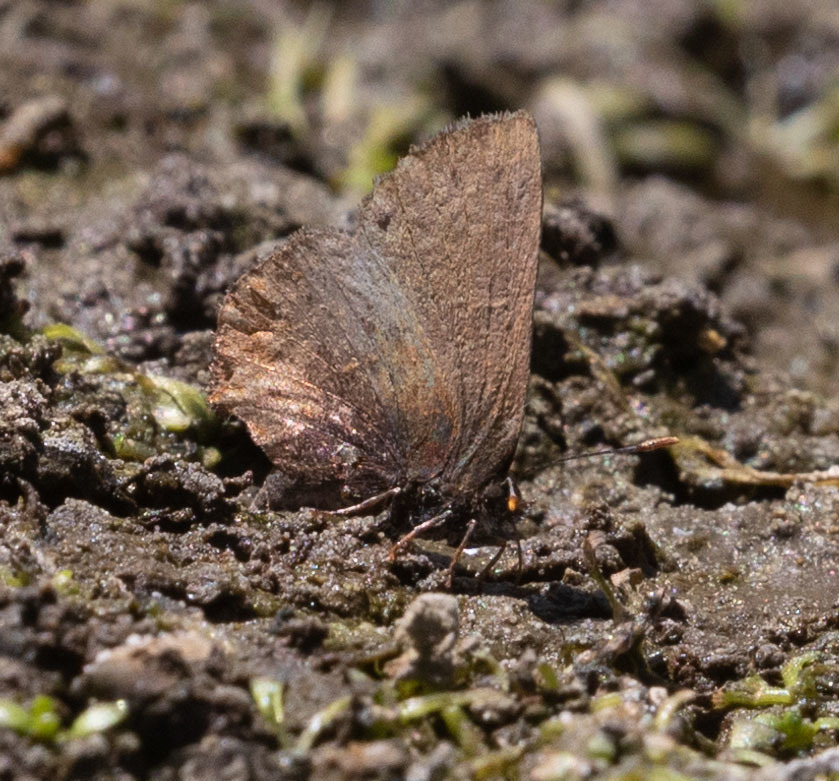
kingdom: Animalia
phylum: Arthropoda
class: Insecta
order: Lepidoptera
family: Lycaenidae
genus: Incisalia
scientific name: Incisalia irioides
